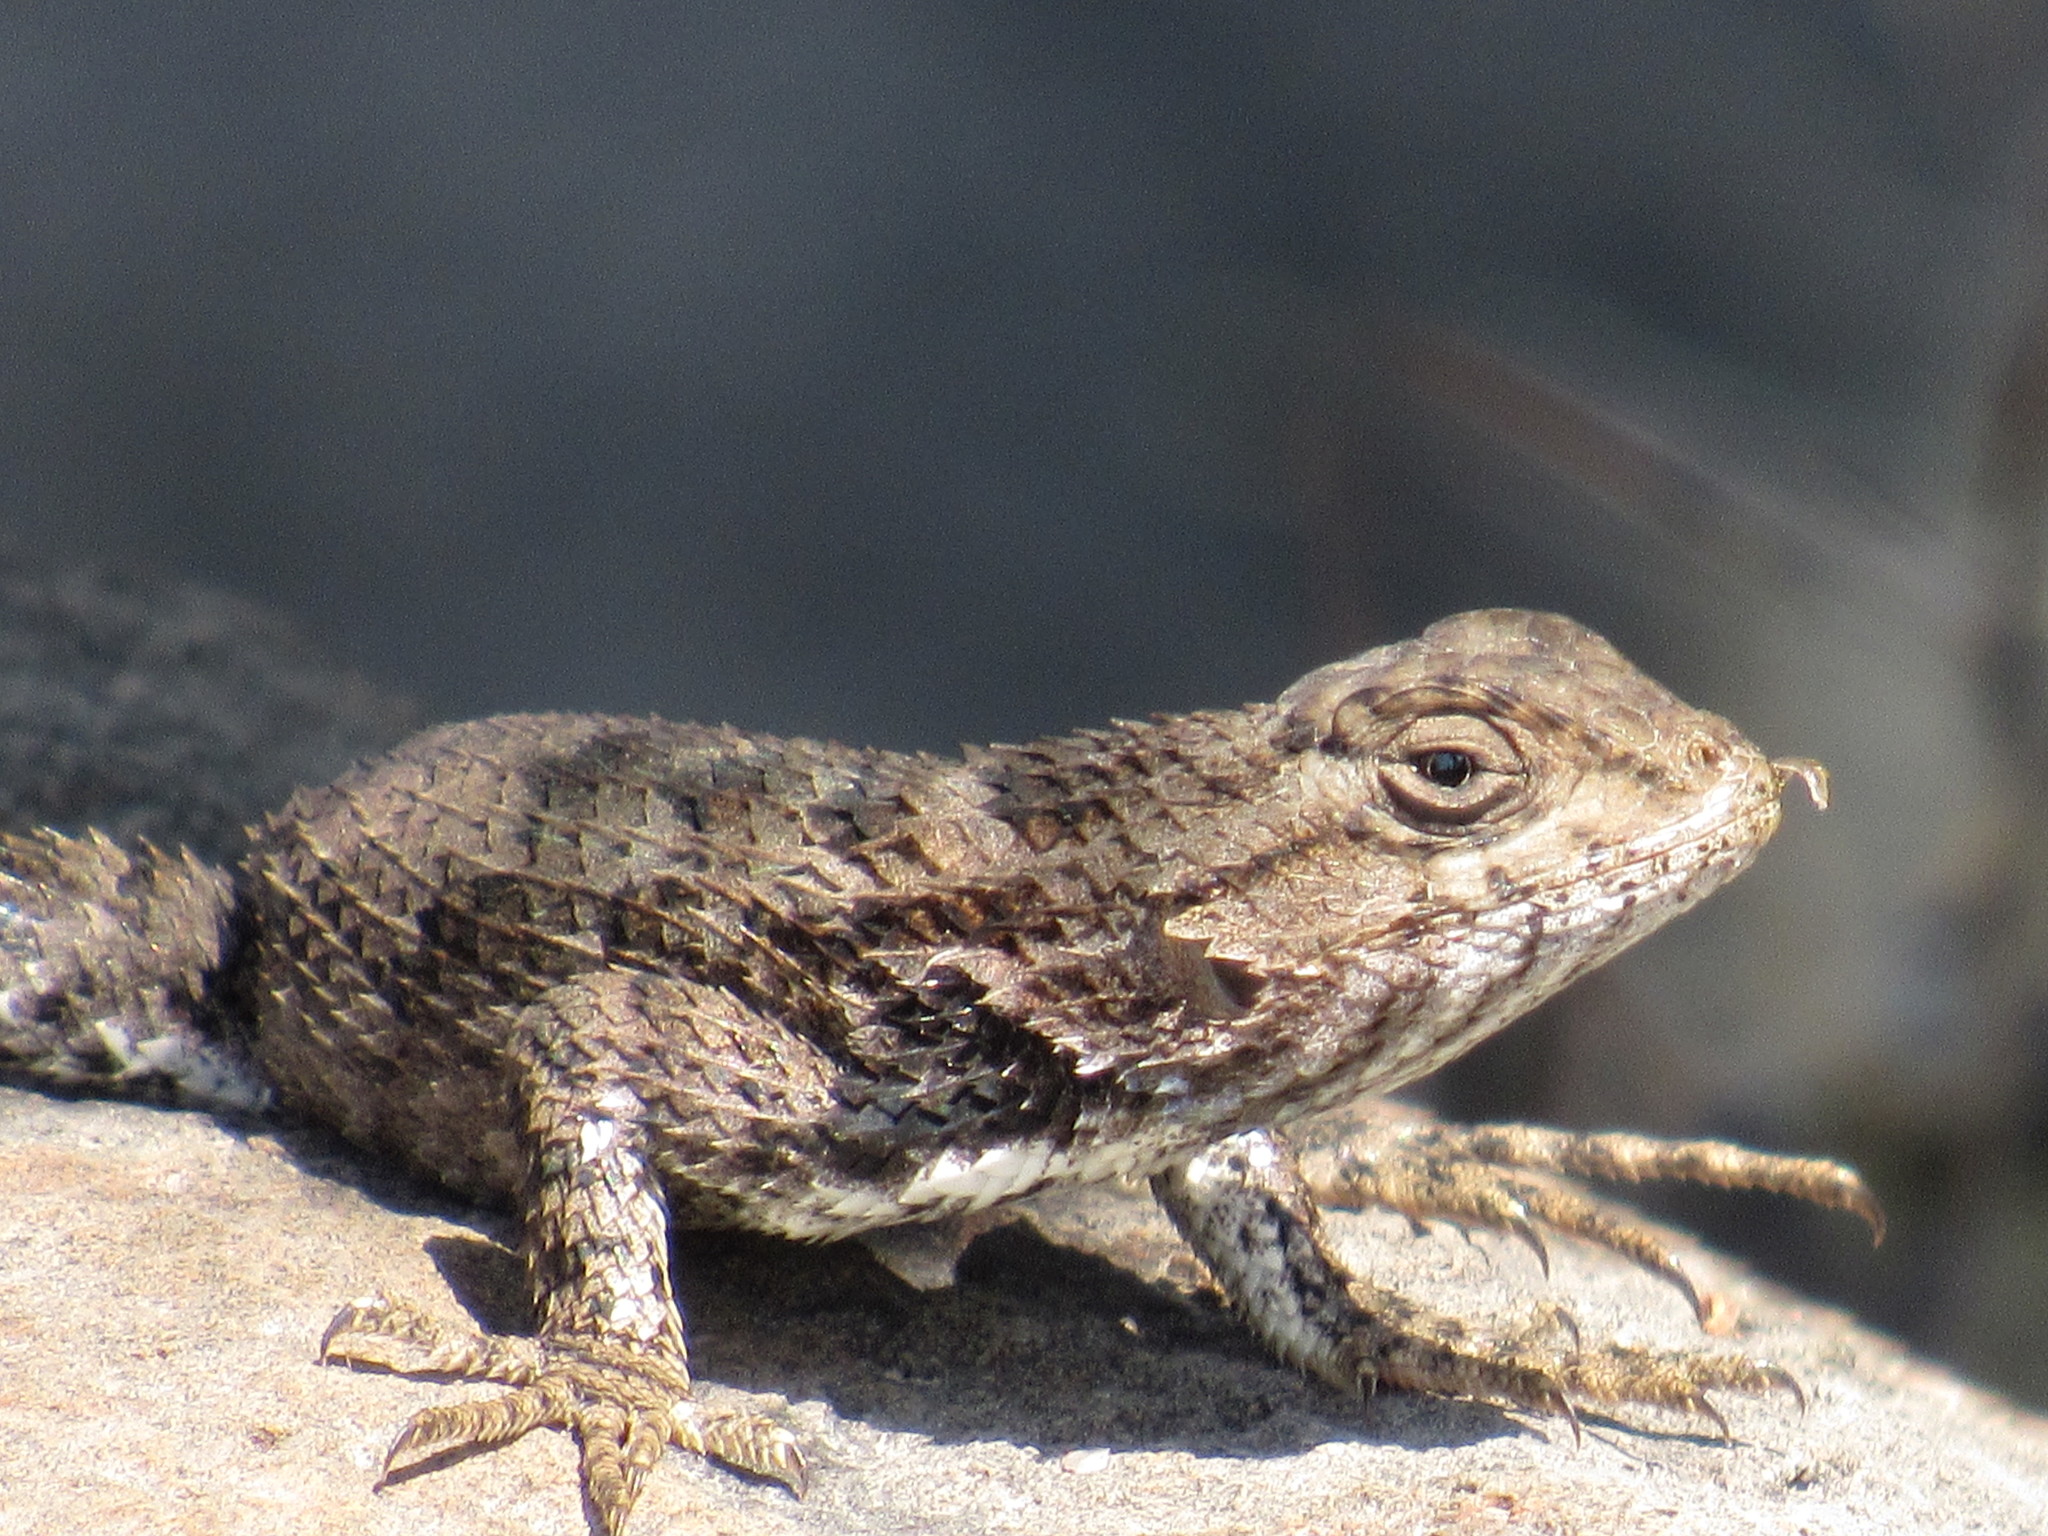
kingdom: Animalia
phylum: Chordata
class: Squamata
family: Phrynosomatidae
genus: Sceloporus
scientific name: Sceloporus spinosus
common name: Blue-spotted spiny lizard [caeruleopunctatus]
